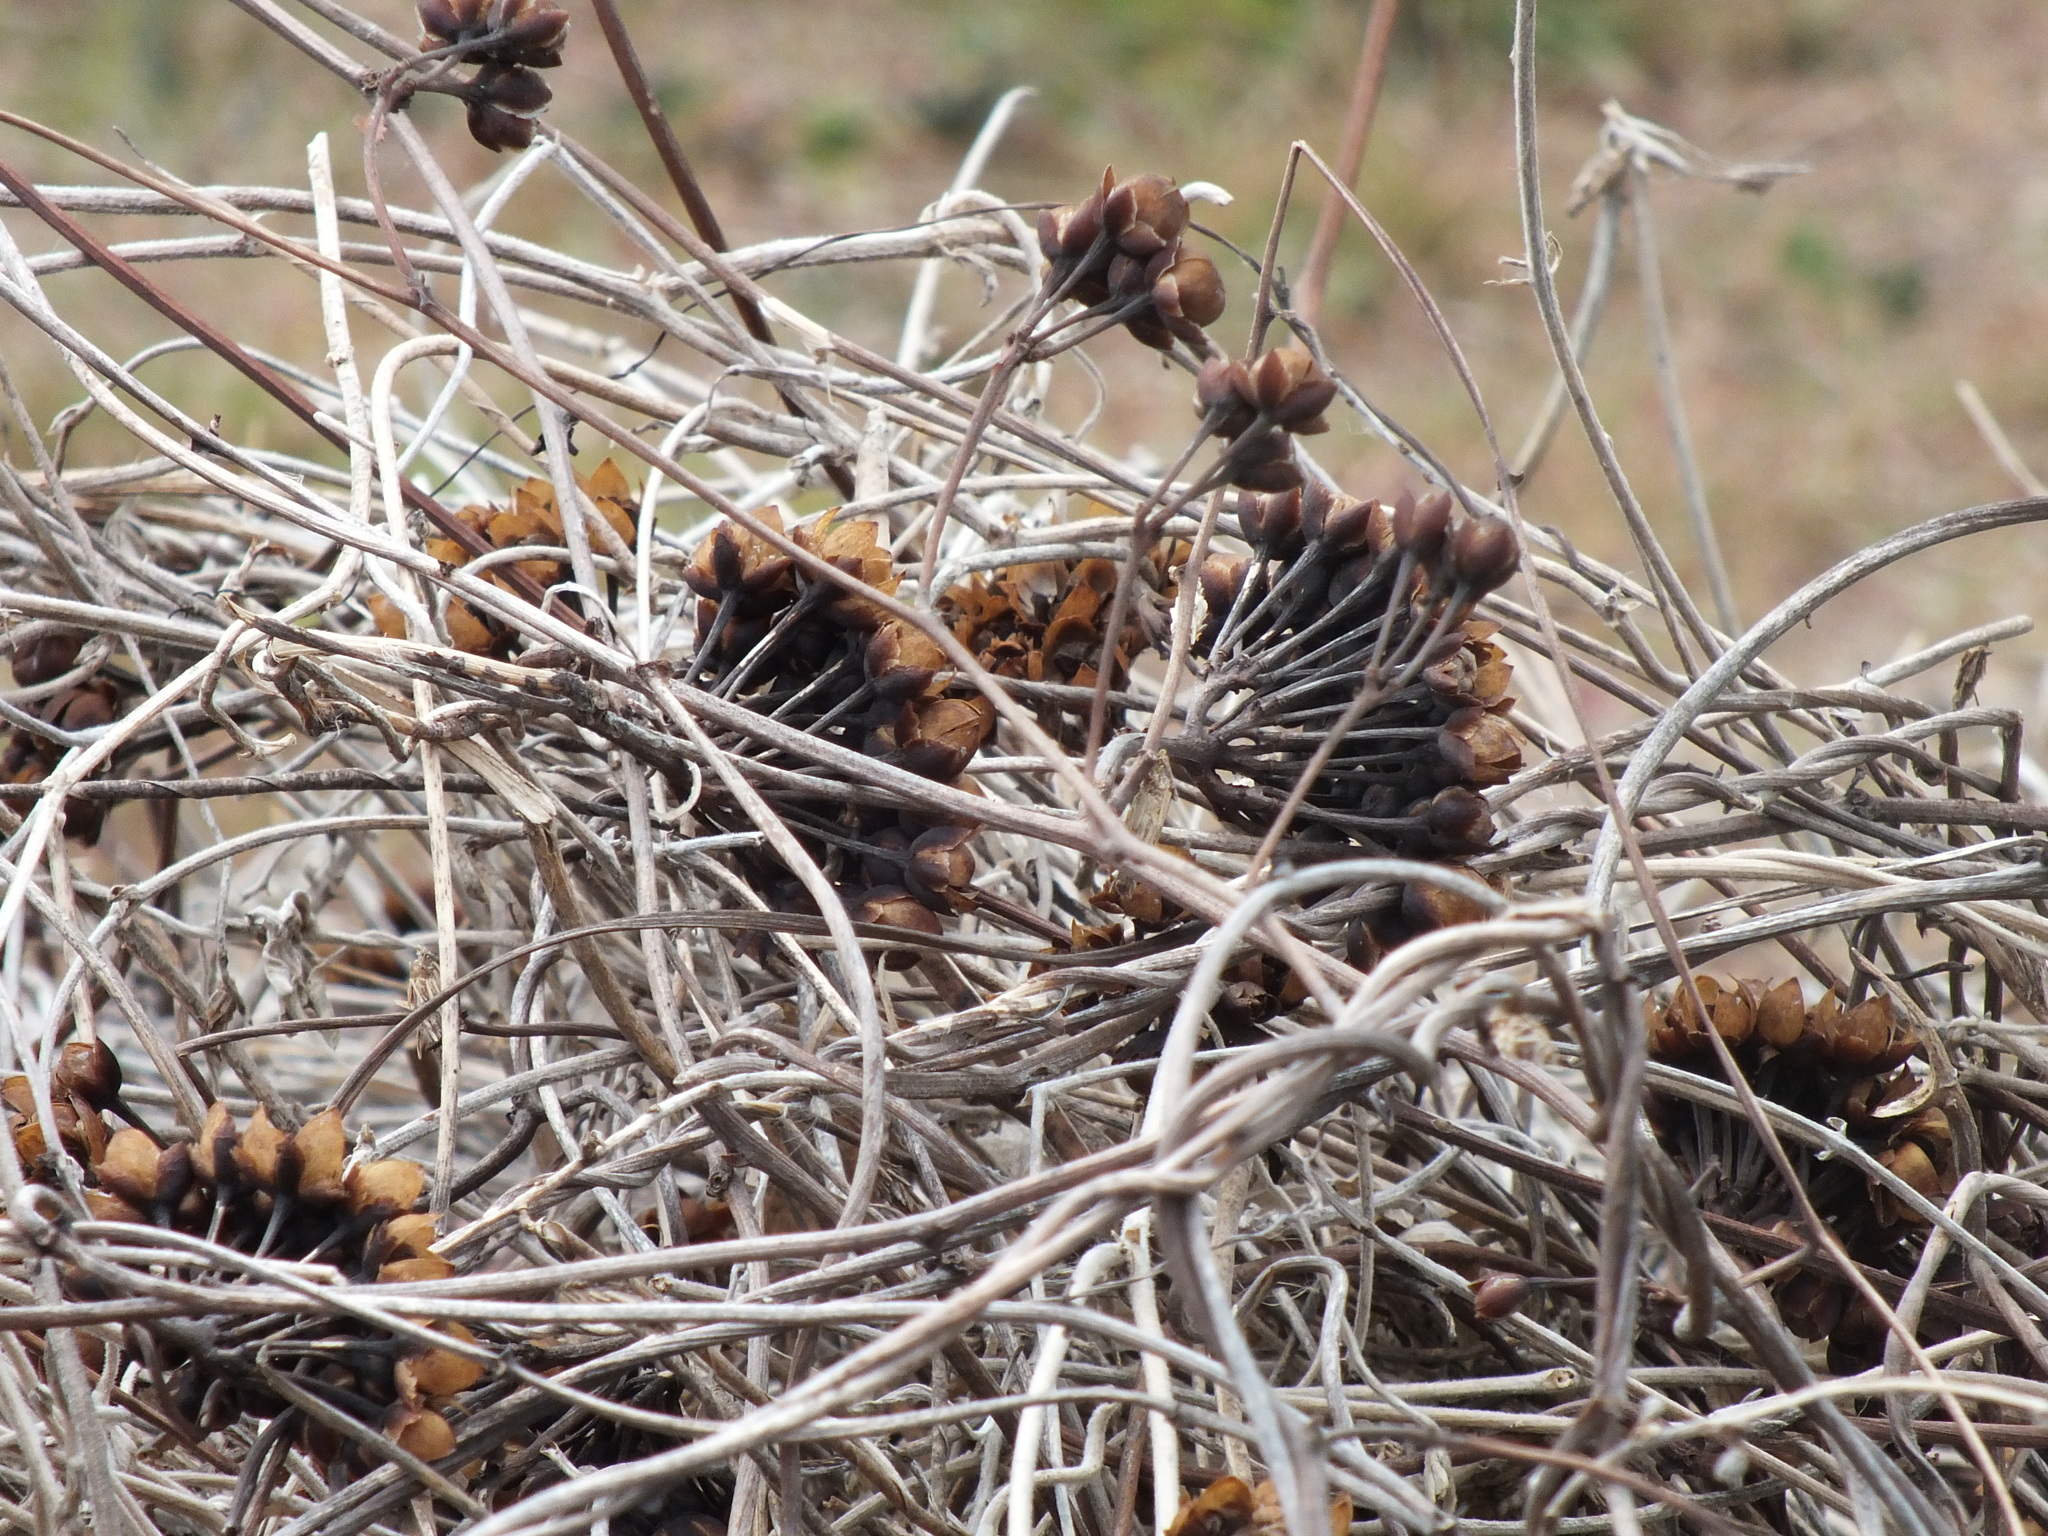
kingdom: Plantae
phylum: Tracheophyta
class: Magnoliopsida
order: Solanales
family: Convolvulaceae
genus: Camonea
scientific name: Camonea umbellata
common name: Hogvine
